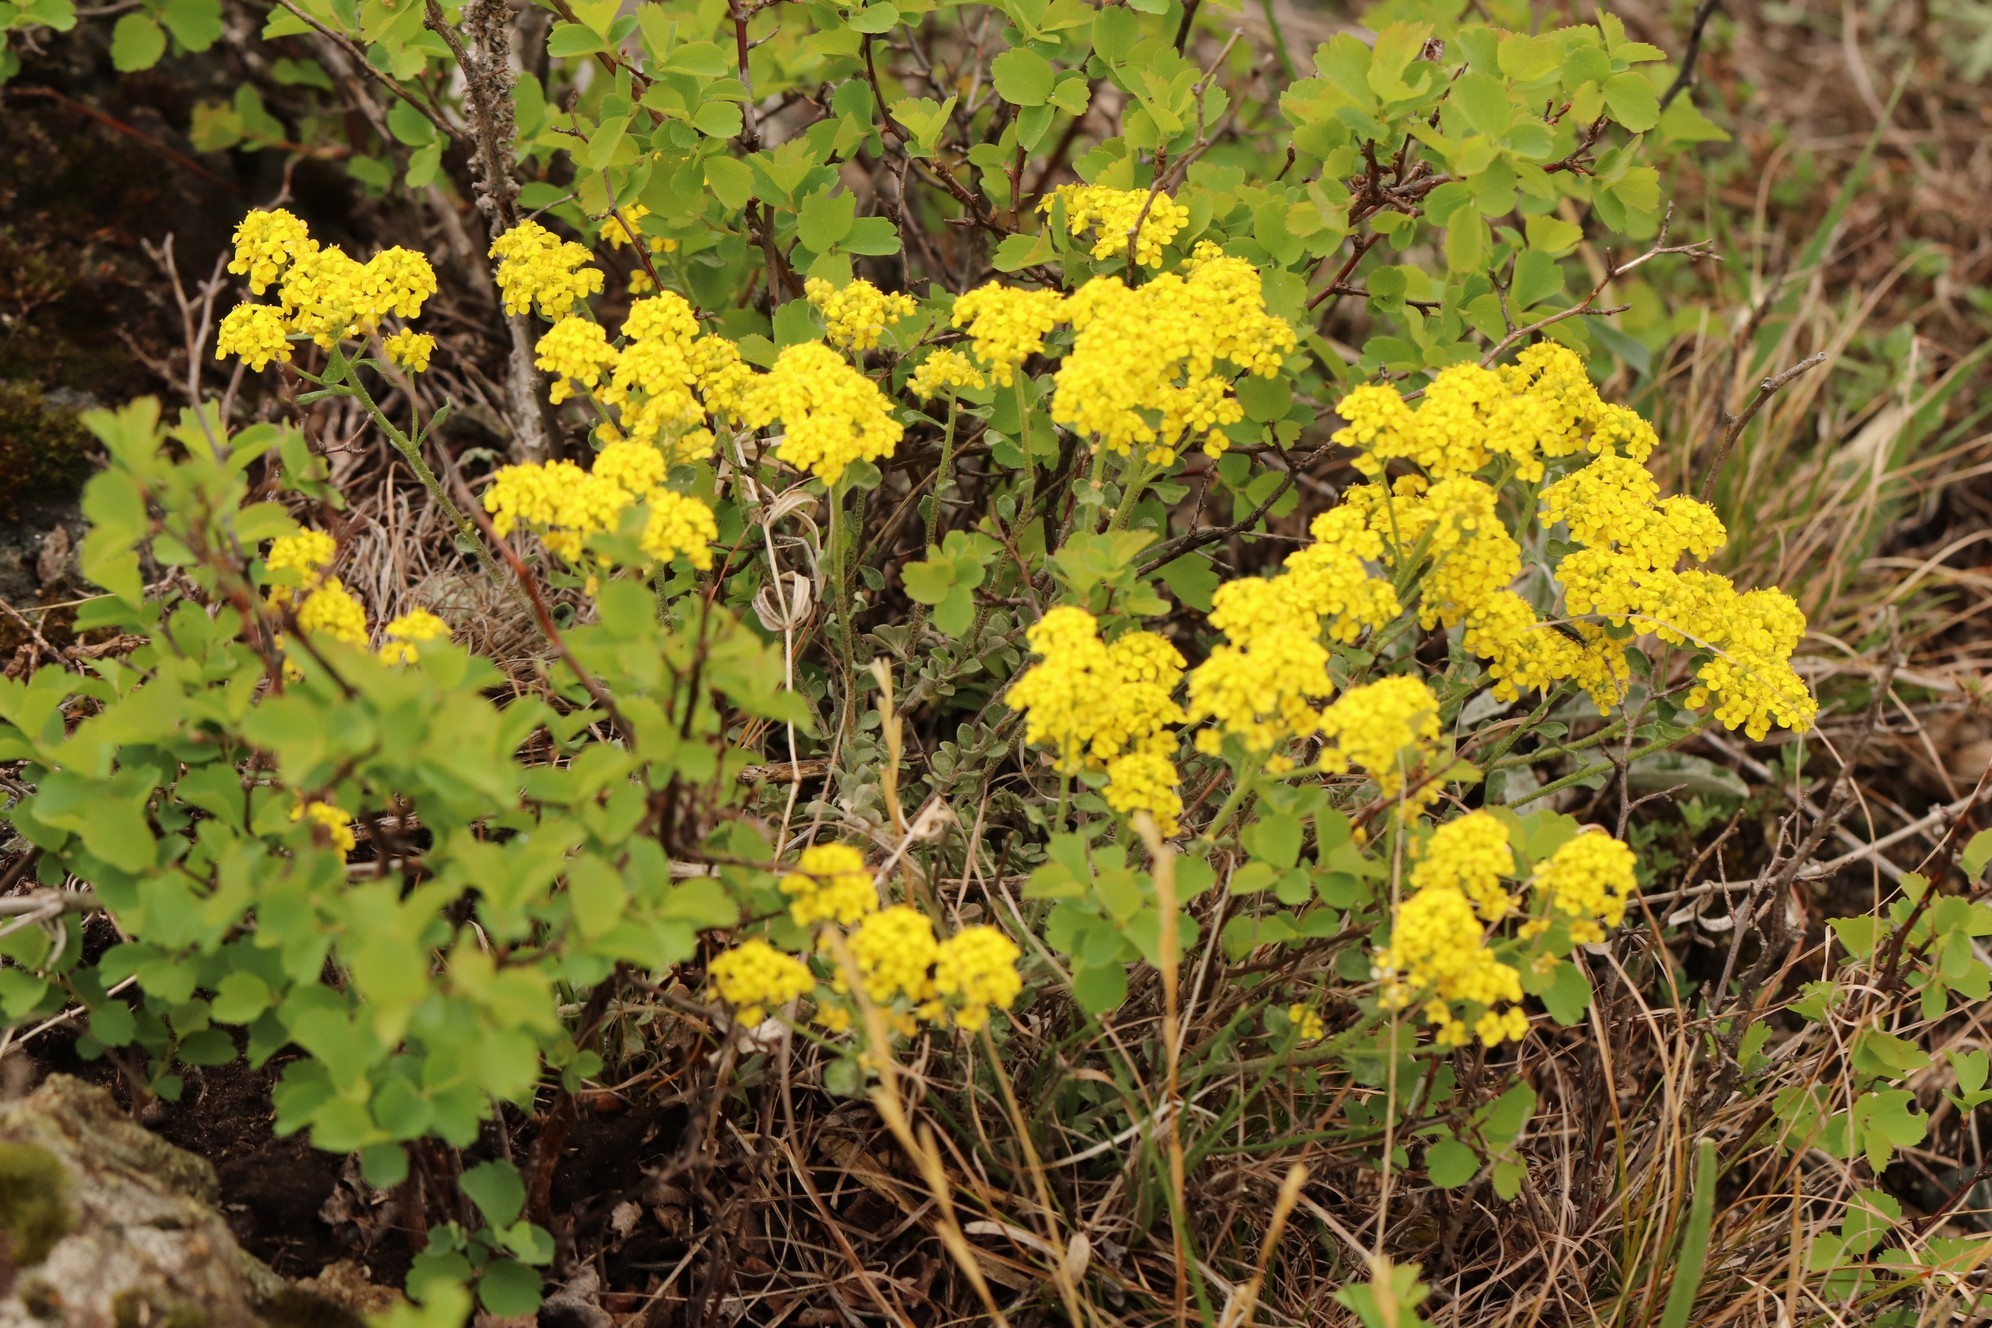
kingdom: Plantae
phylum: Tracheophyta
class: Magnoliopsida
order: Brassicales
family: Brassicaceae
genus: Odontarrhena
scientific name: Odontarrhena obovata
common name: American alyssum
